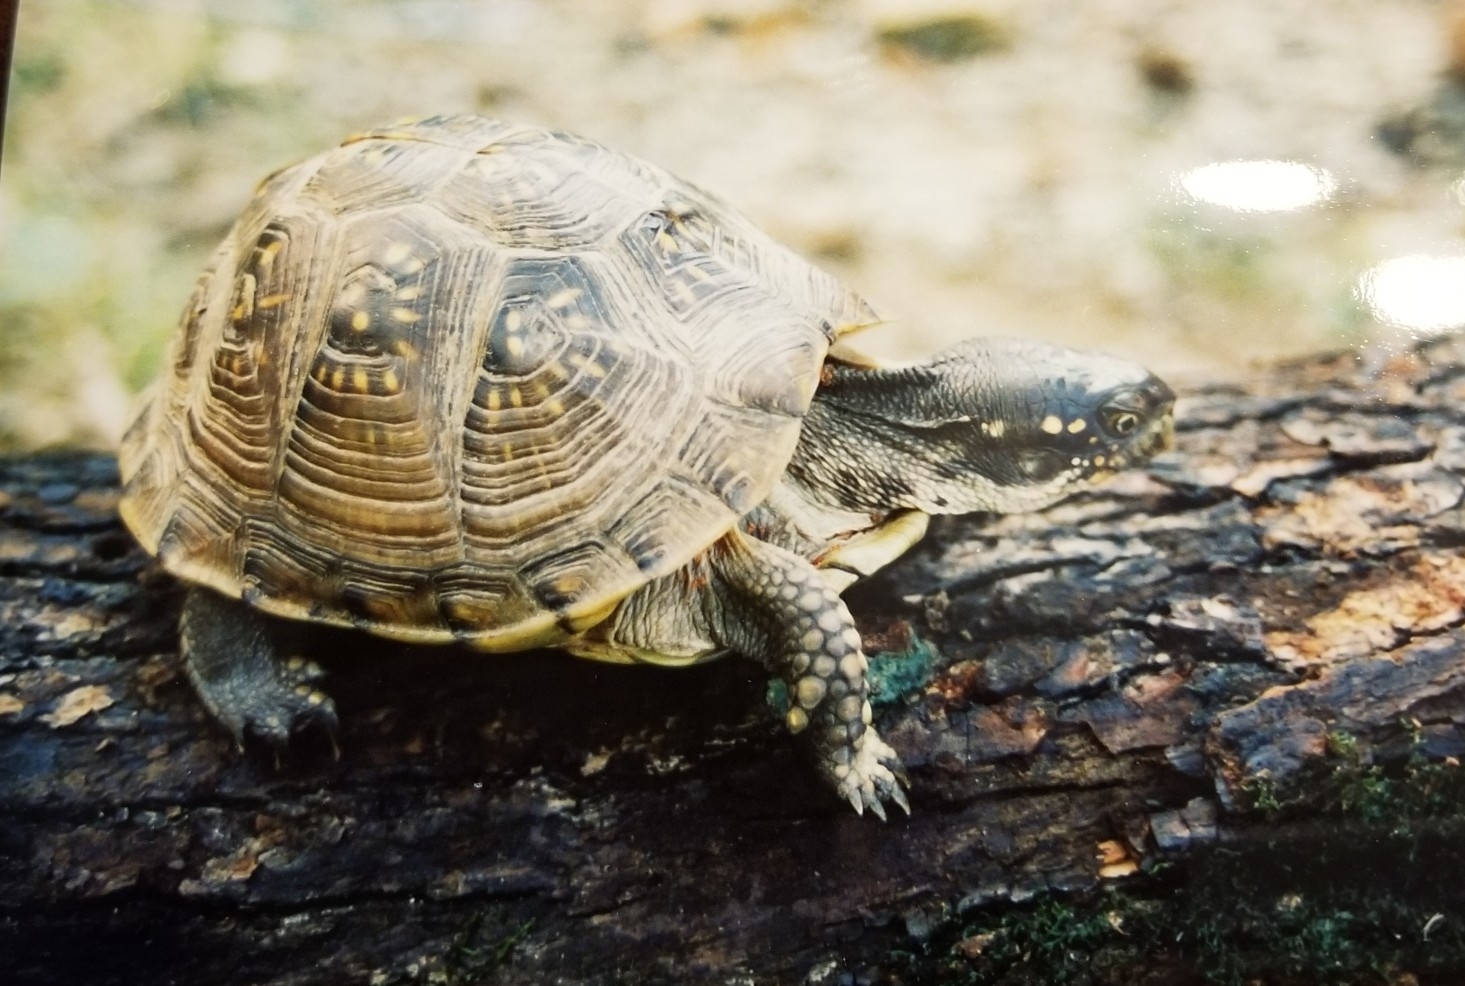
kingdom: Animalia
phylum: Chordata
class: Testudines
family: Emydidae
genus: Terrapene
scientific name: Terrapene carolina
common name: Common box turtle
